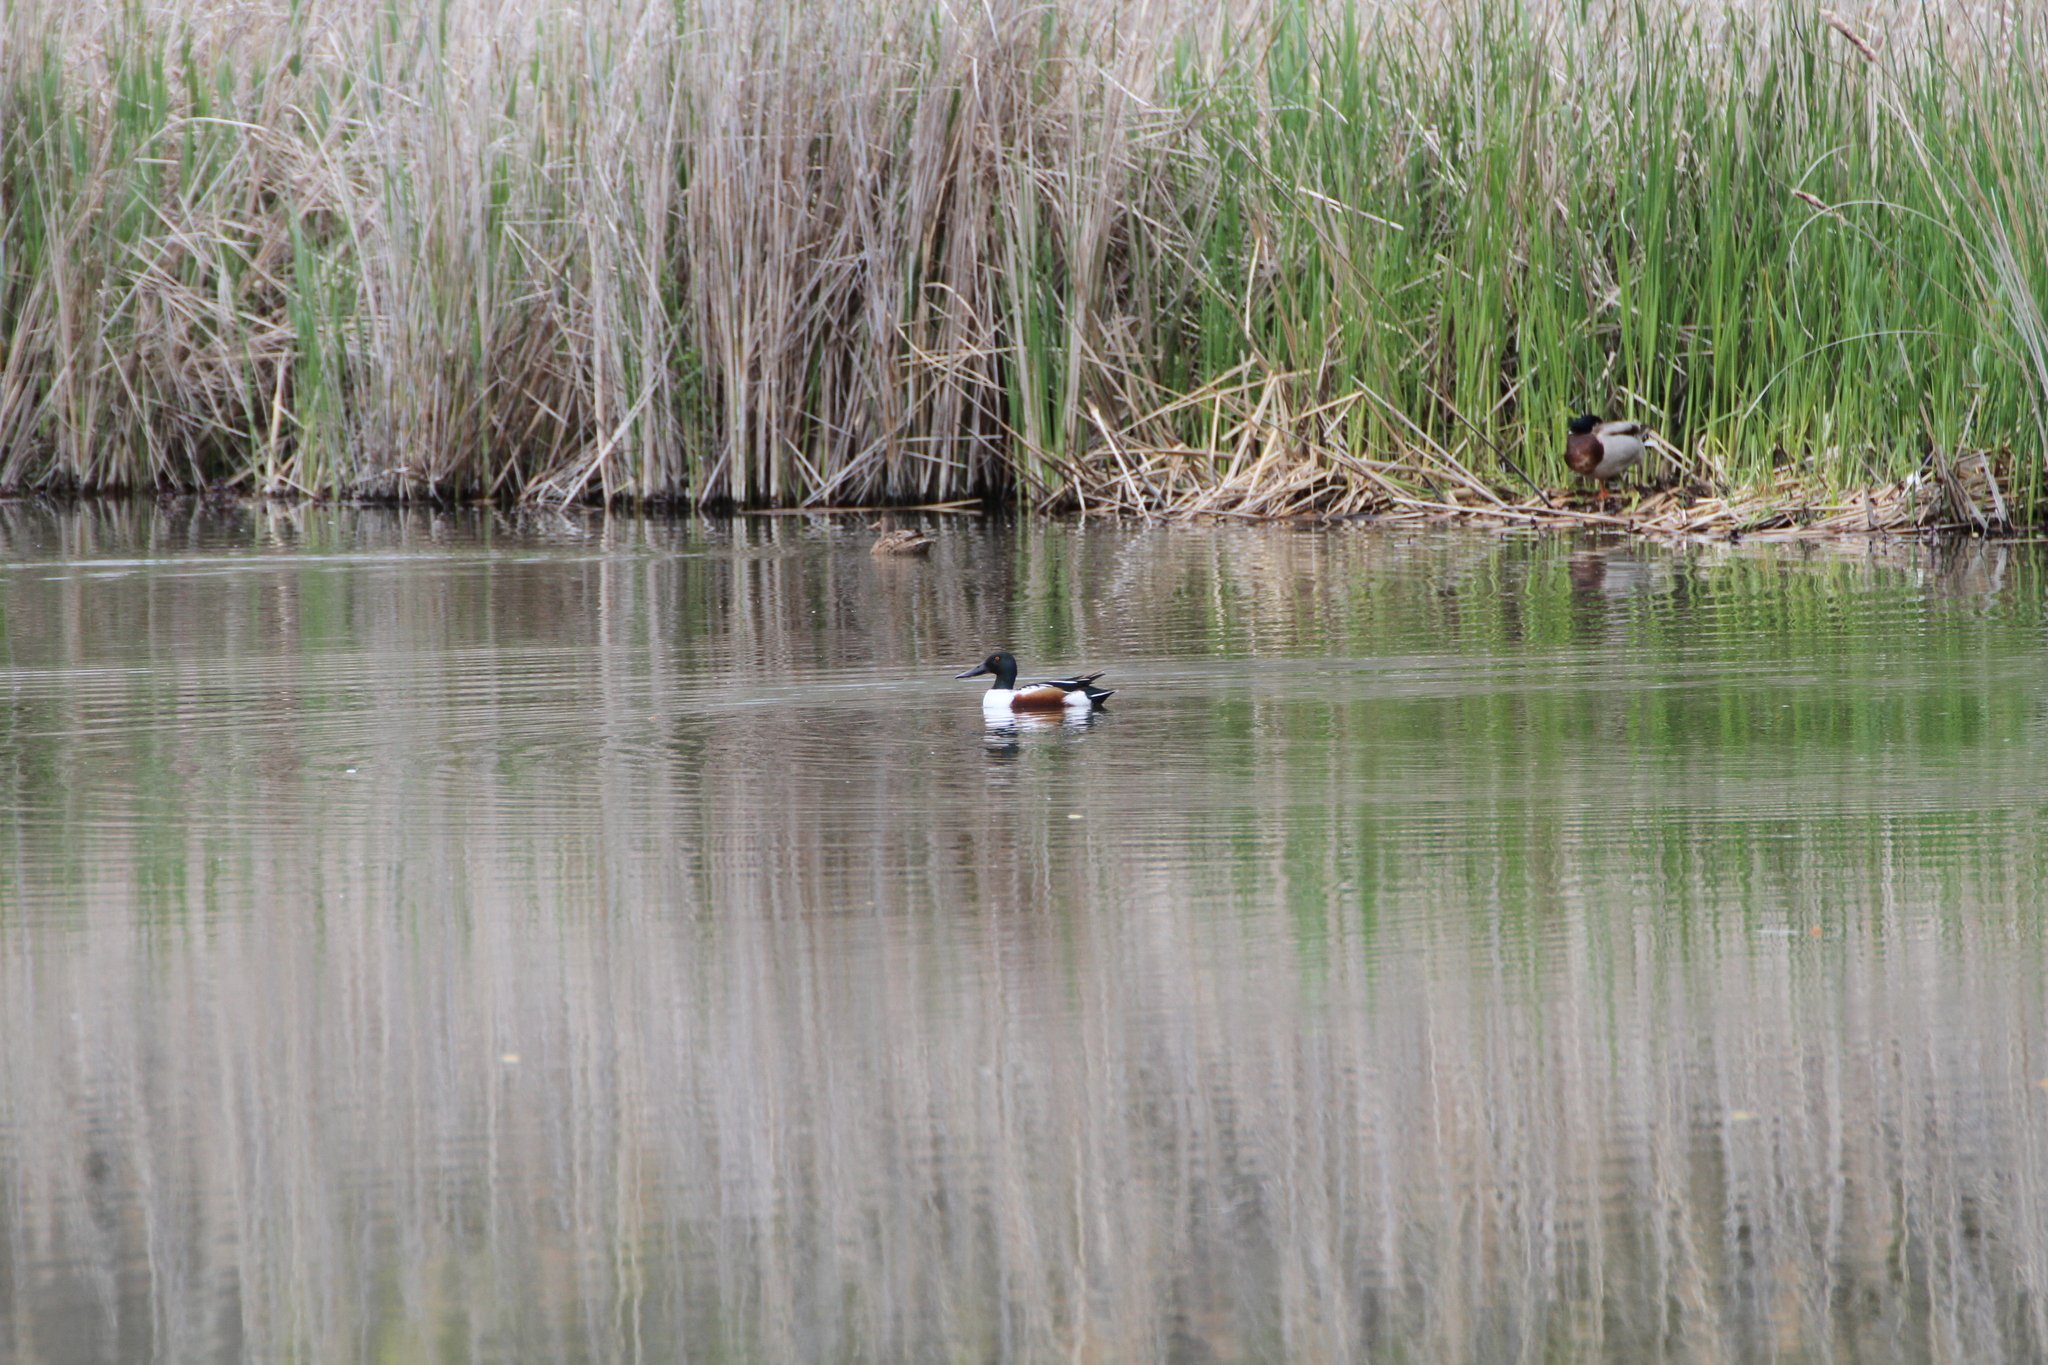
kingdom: Animalia
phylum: Chordata
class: Aves
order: Anseriformes
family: Anatidae
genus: Spatula
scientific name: Spatula clypeata
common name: Northern shoveler
